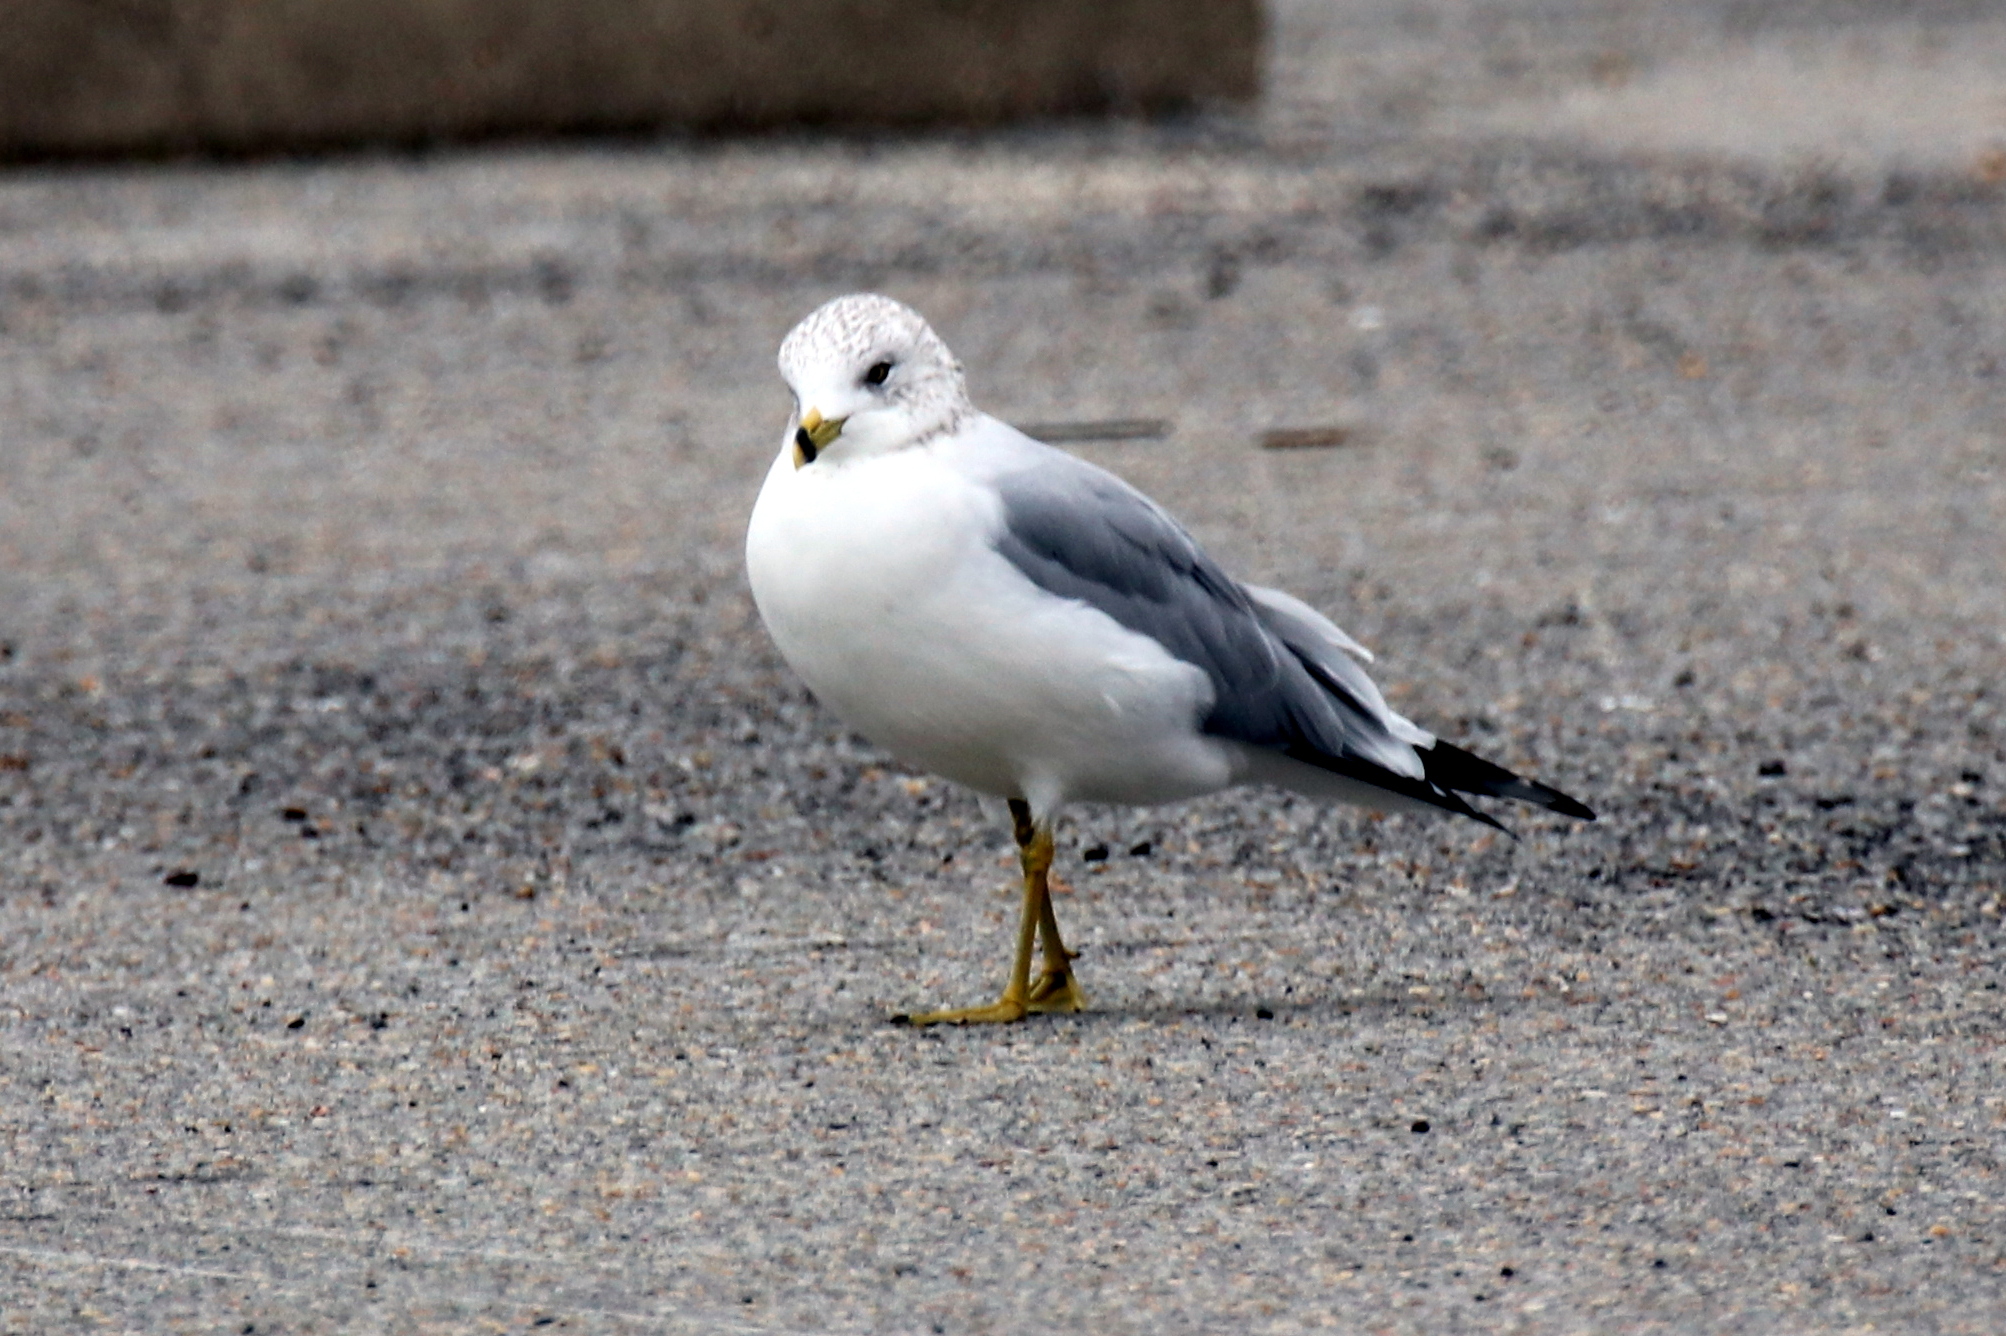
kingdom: Animalia
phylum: Chordata
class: Aves
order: Charadriiformes
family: Laridae
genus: Larus
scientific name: Larus delawarensis
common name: Ring-billed gull
